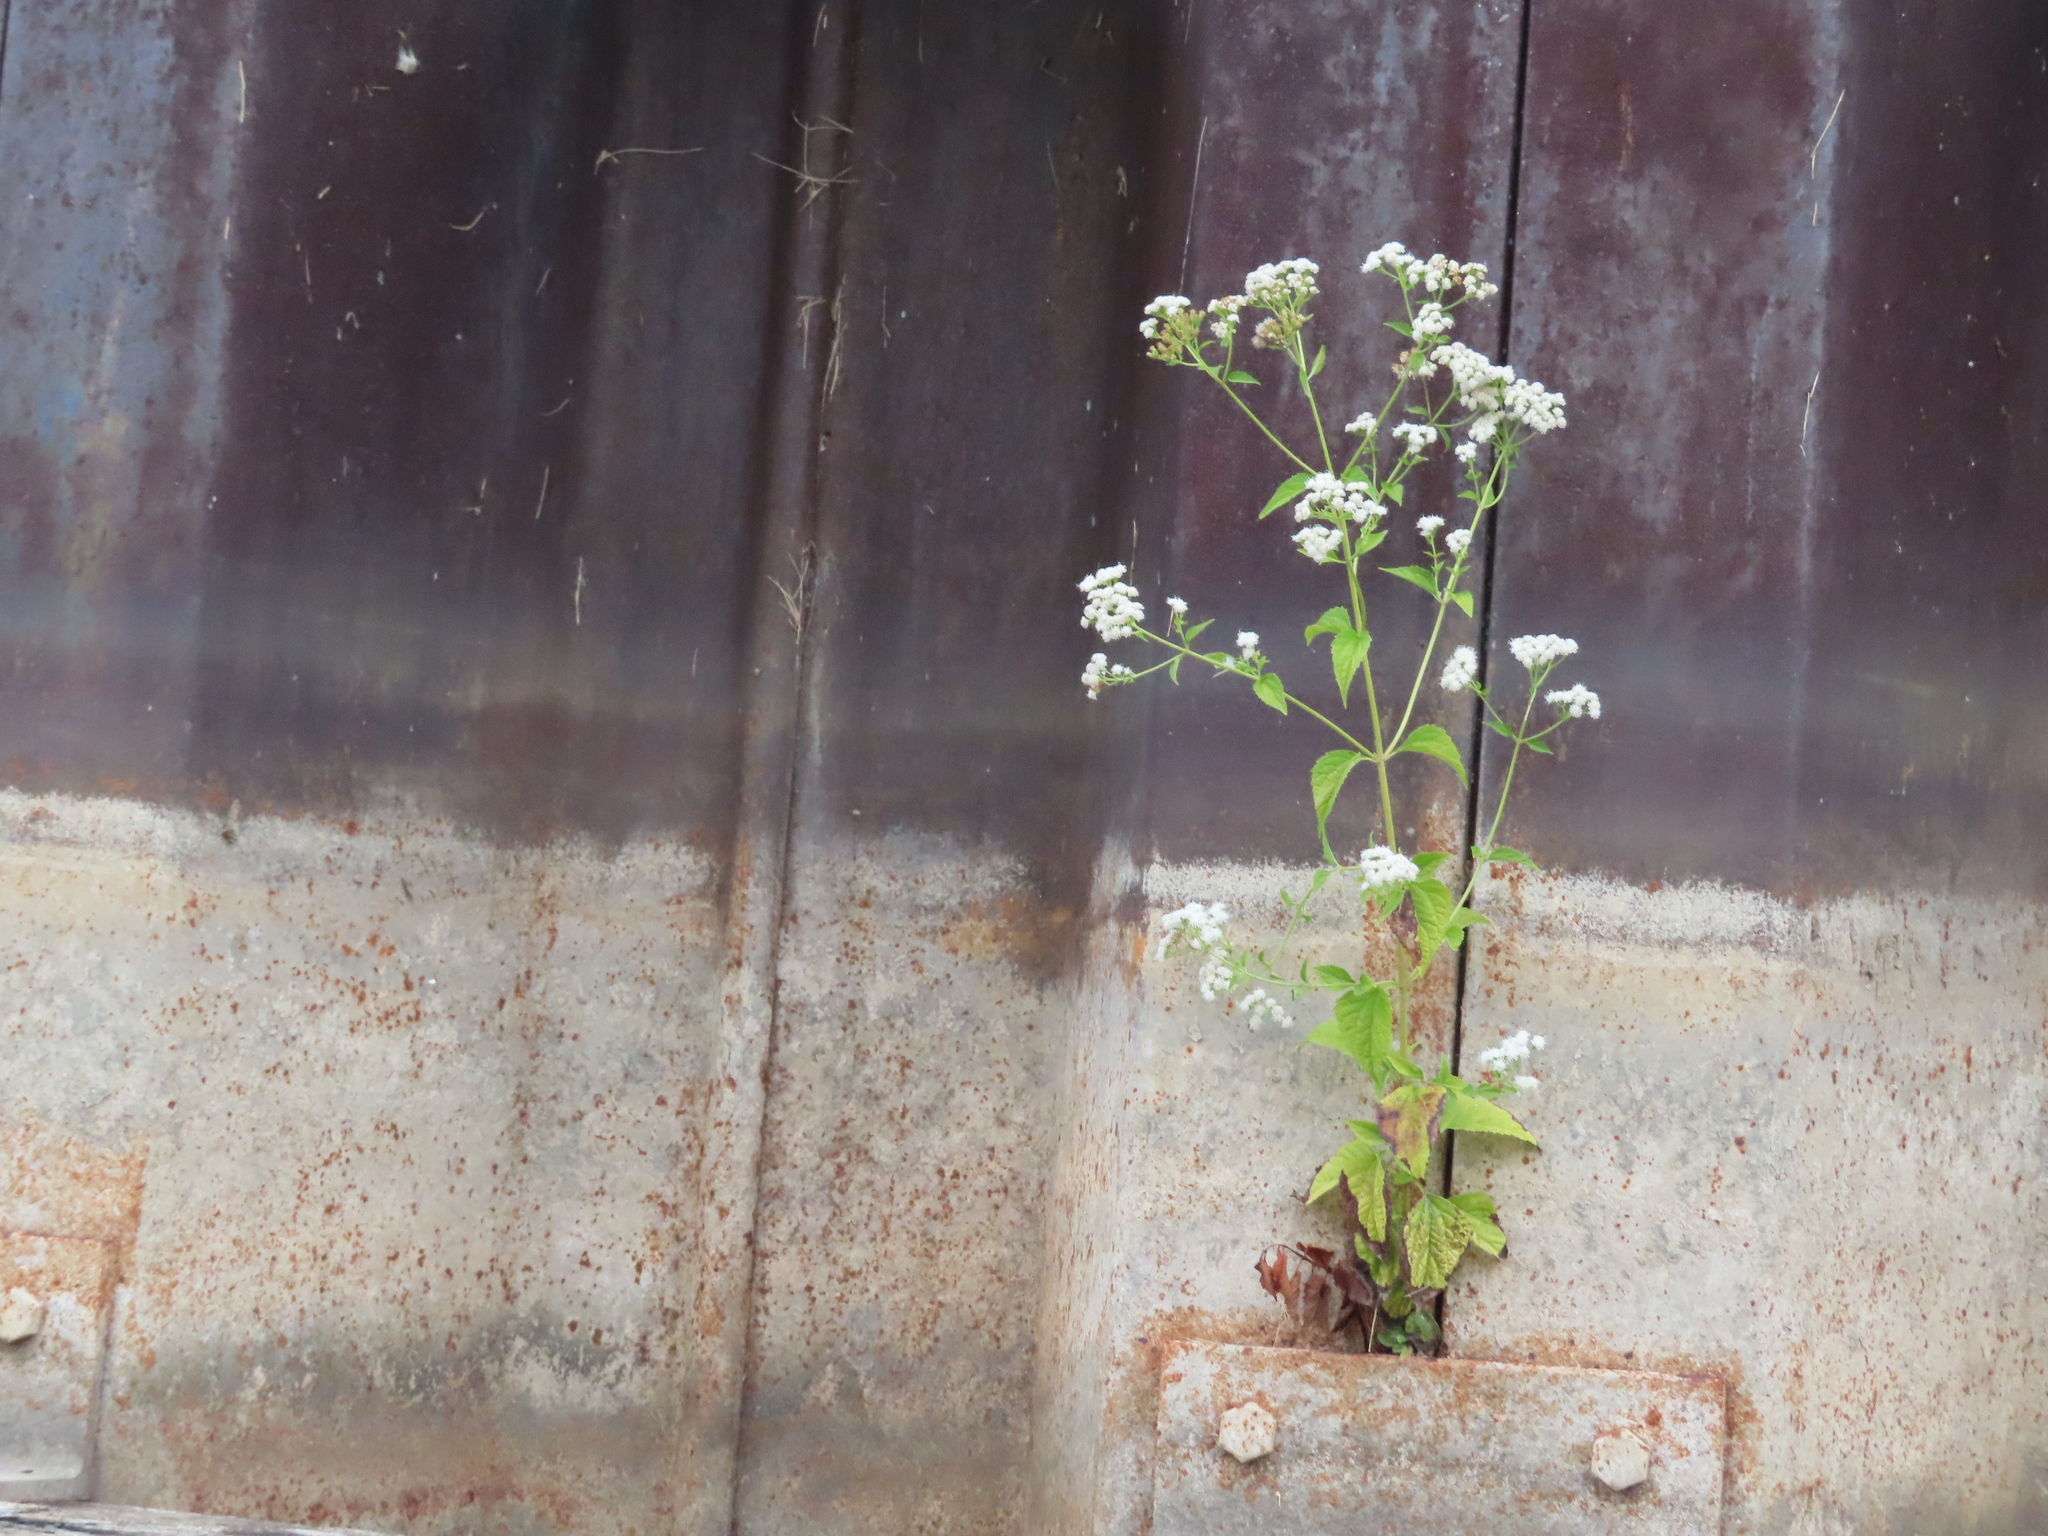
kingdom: Plantae
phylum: Tracheophyta
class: Magnoliopsida
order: Asterales
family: Asteraceae
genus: Ageratina
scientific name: Ageratina altissima
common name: White snakeroot
